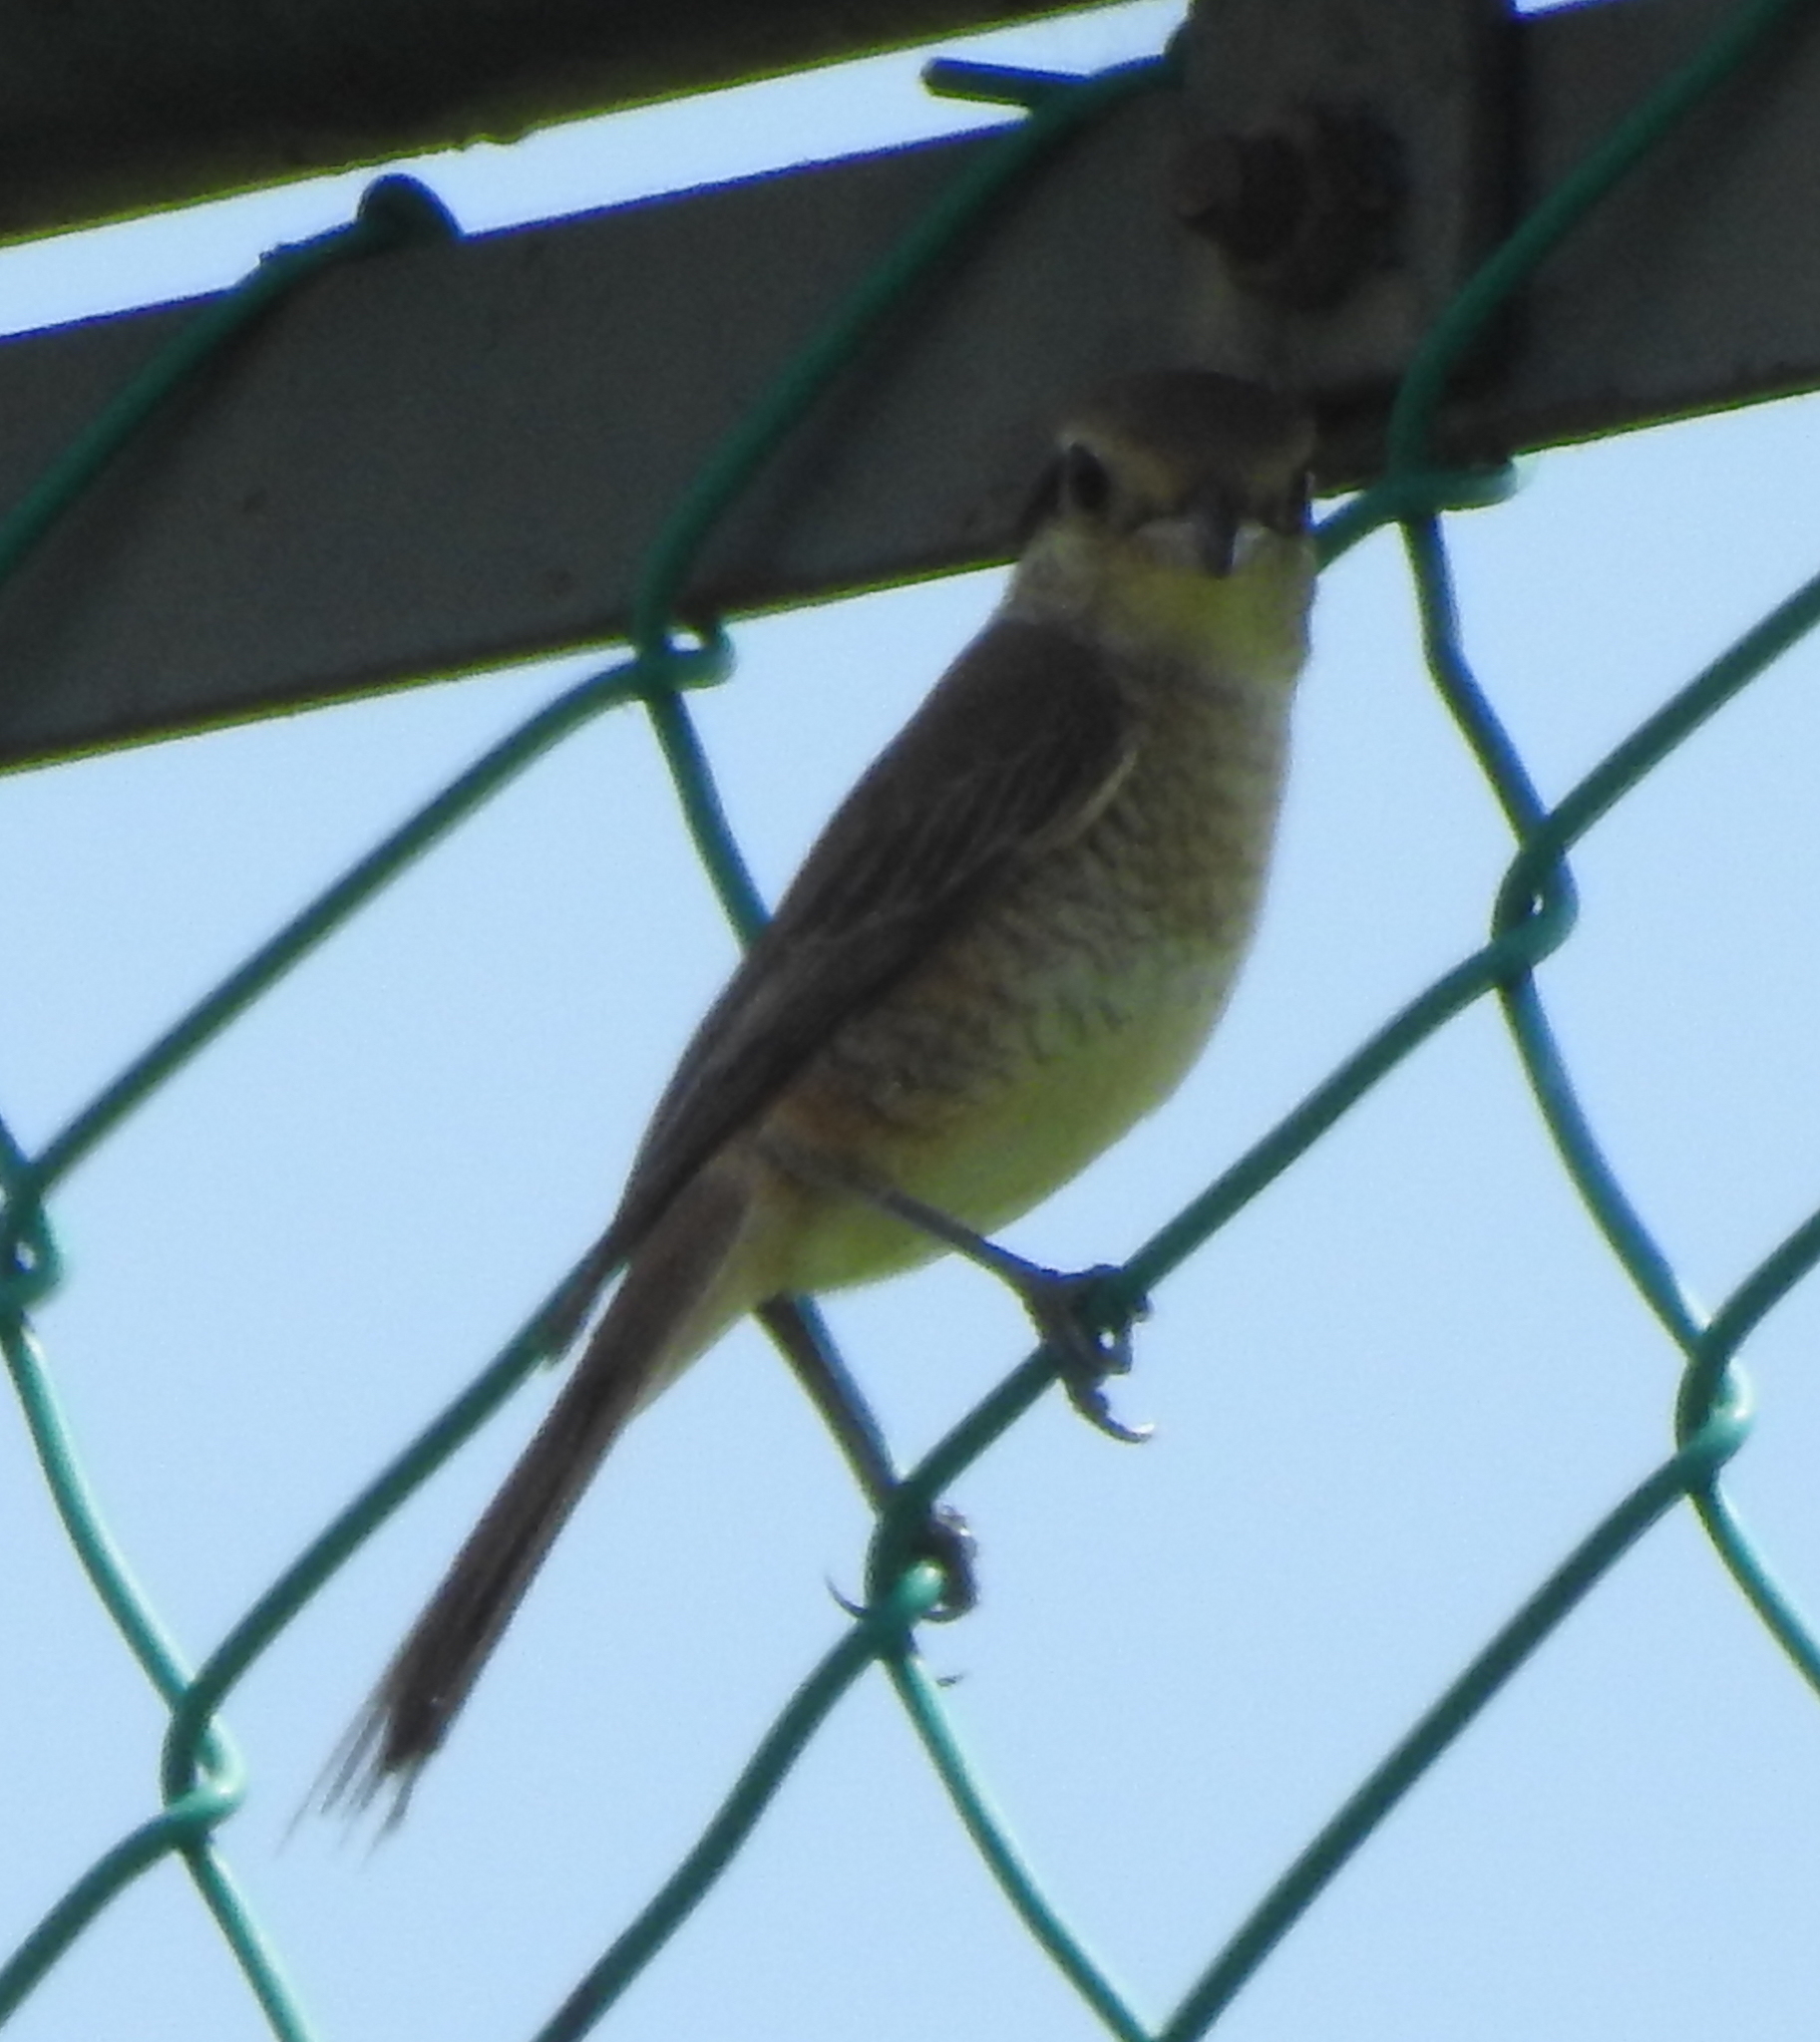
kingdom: Animalia
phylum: Chordata
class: Aves
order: Passeriformes
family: Laniidae
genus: Lanius
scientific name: Lanius cristatus
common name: Brown shrike
